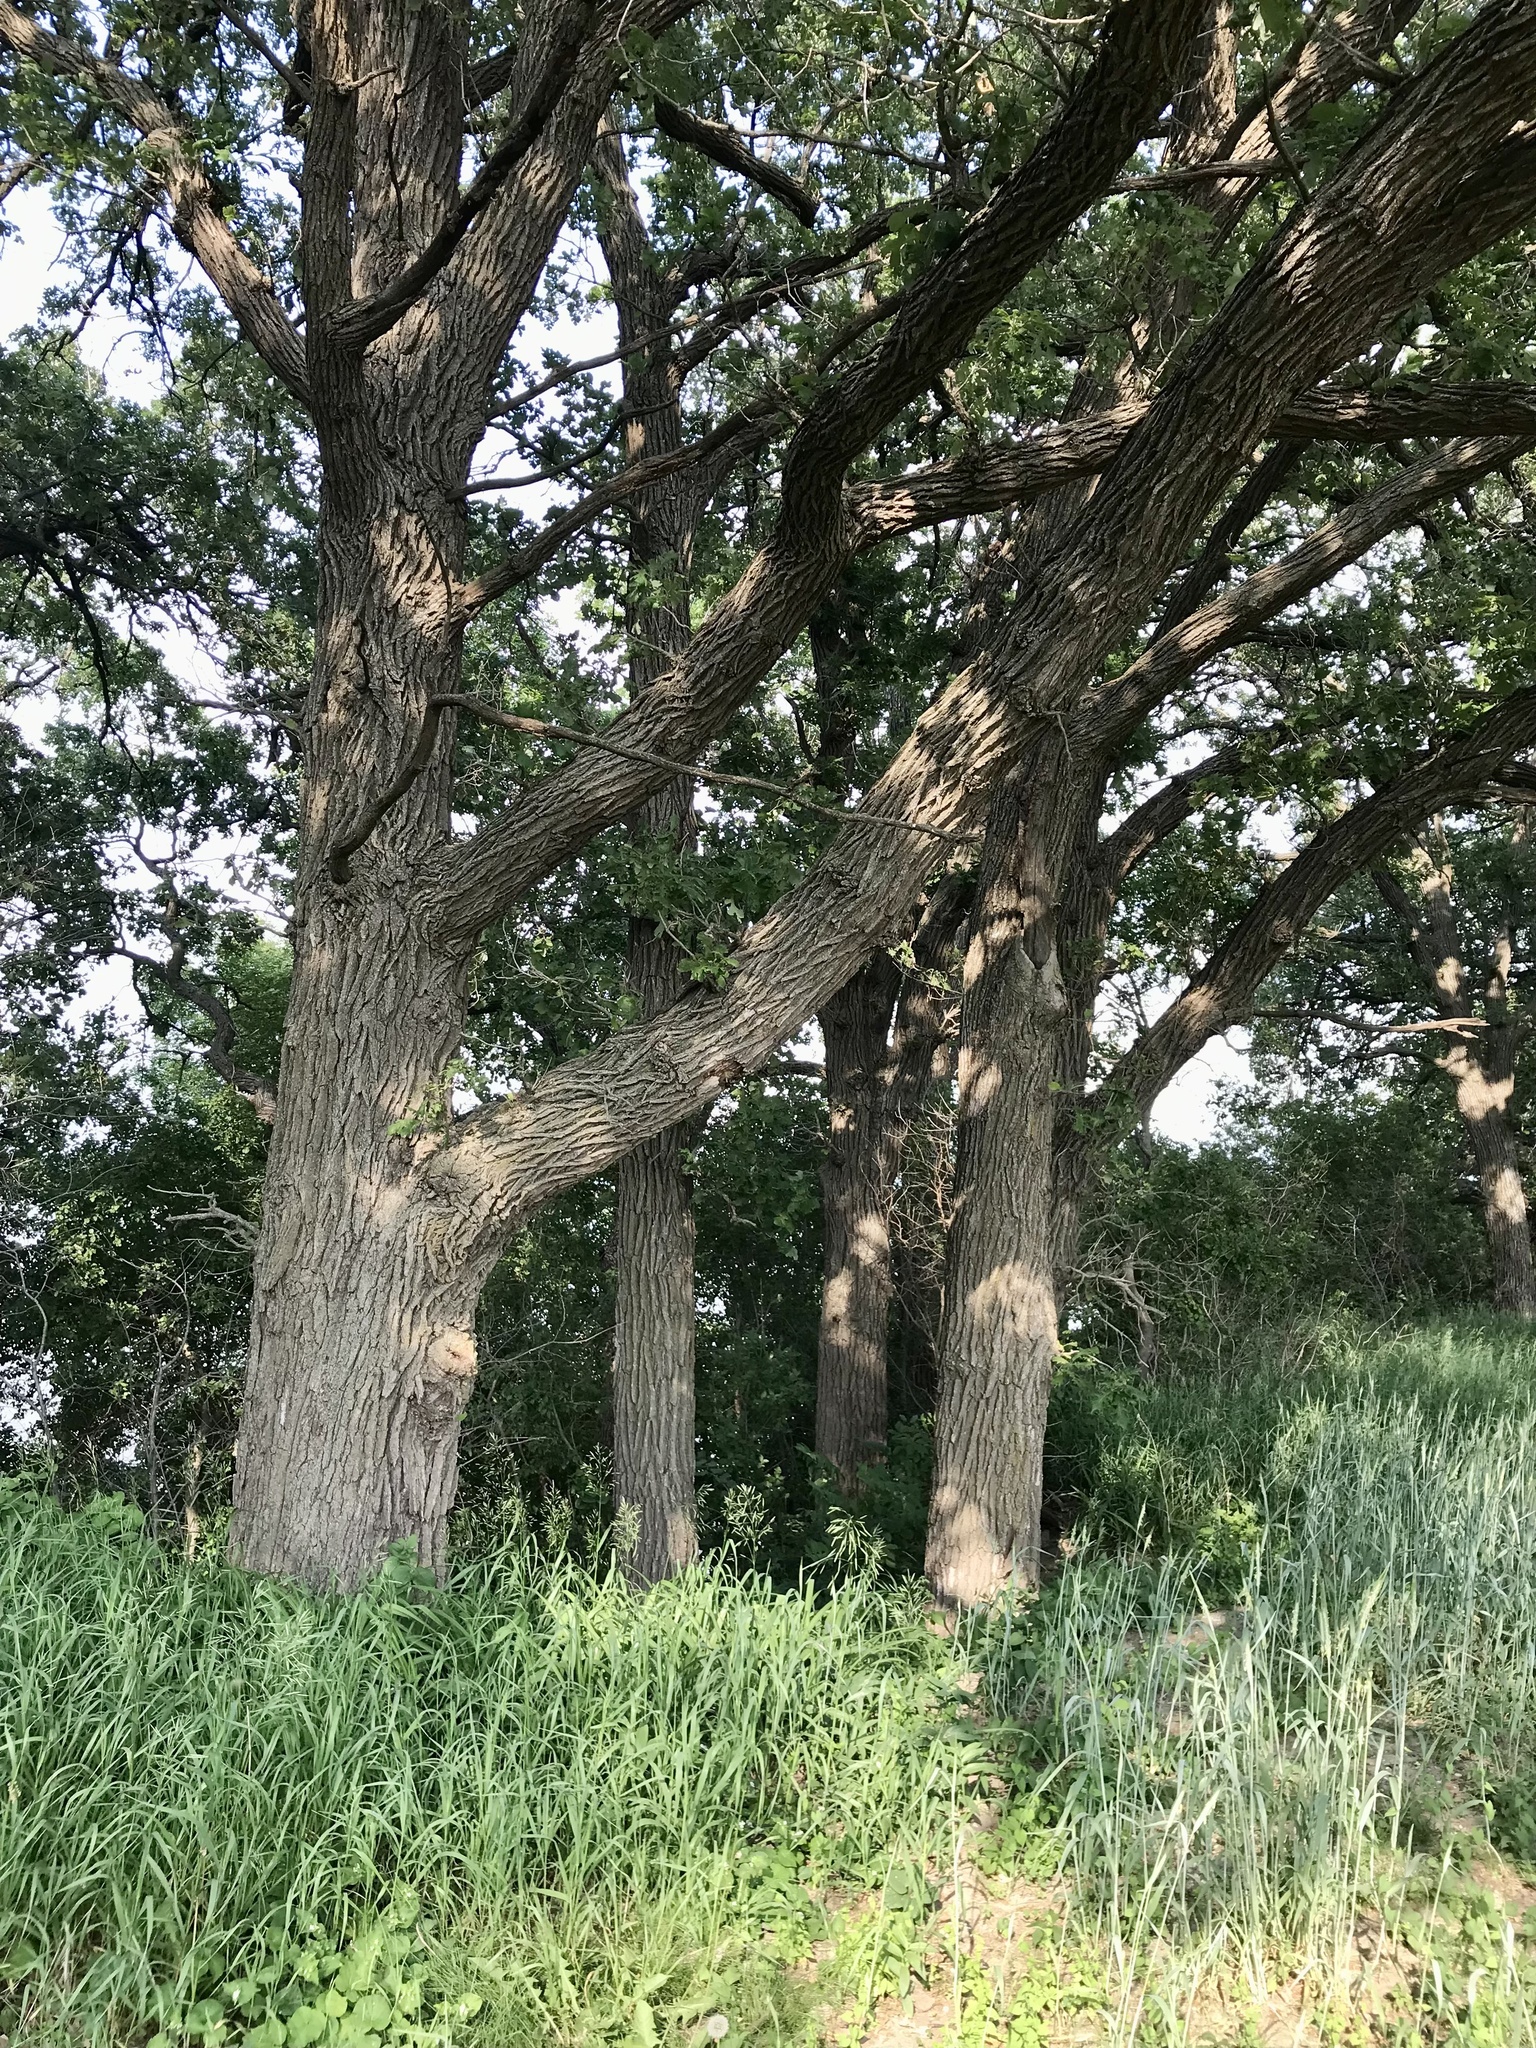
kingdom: Plantae
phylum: Tracheophyta
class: Magnoliopsida
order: Fagales
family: Fagaceae
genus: Quercus
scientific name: Quercus macrocarpa
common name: Bur oak
